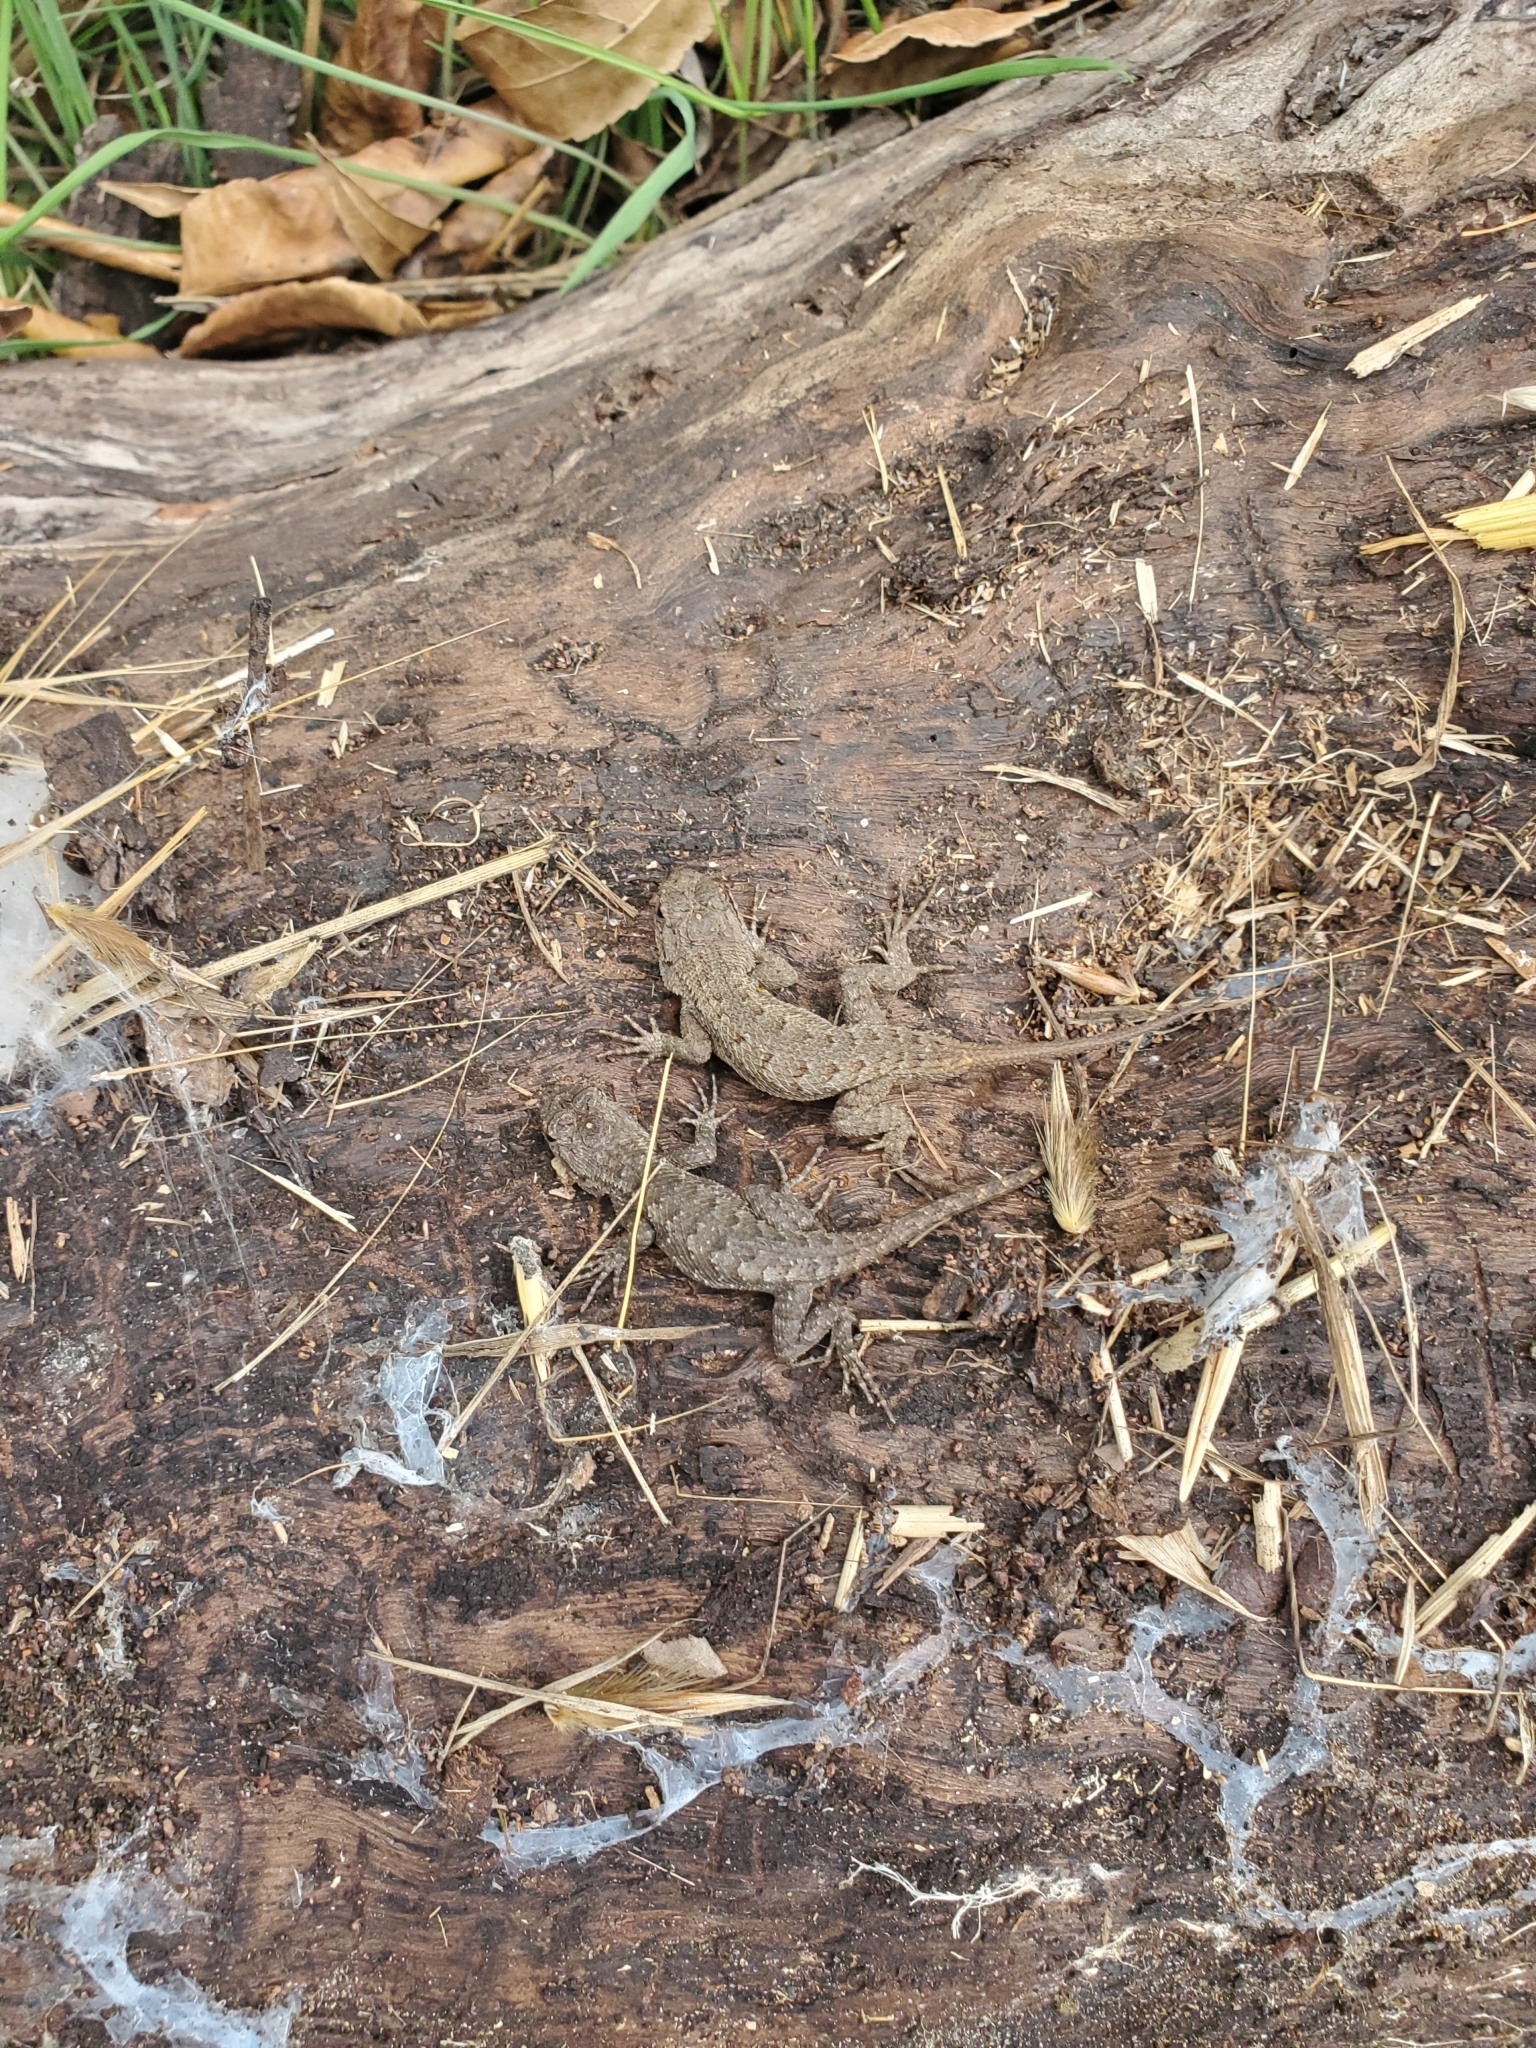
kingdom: Animalia
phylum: Chordata
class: Squamata
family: Phrynosomatidae
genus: Sceloporus
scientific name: Sceloporus occidentalis
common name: Western fence lizard
